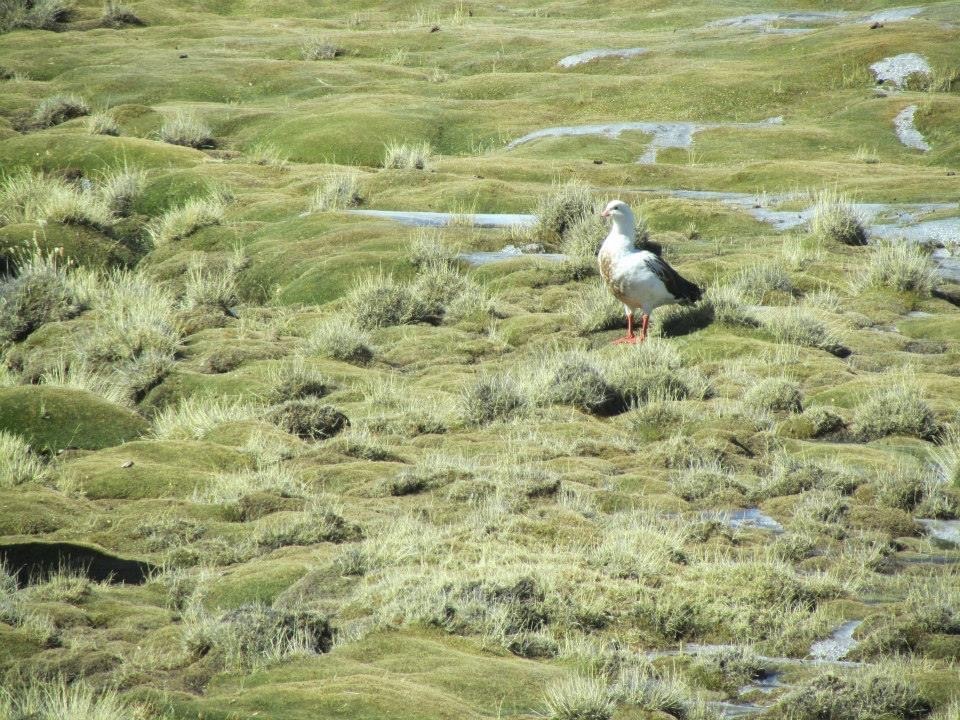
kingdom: Animalia
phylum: Chordata
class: Aves
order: Anseriformes
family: Anatidae
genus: Chloephaga
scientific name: Chloephaga melanoptera
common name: Andean goose
